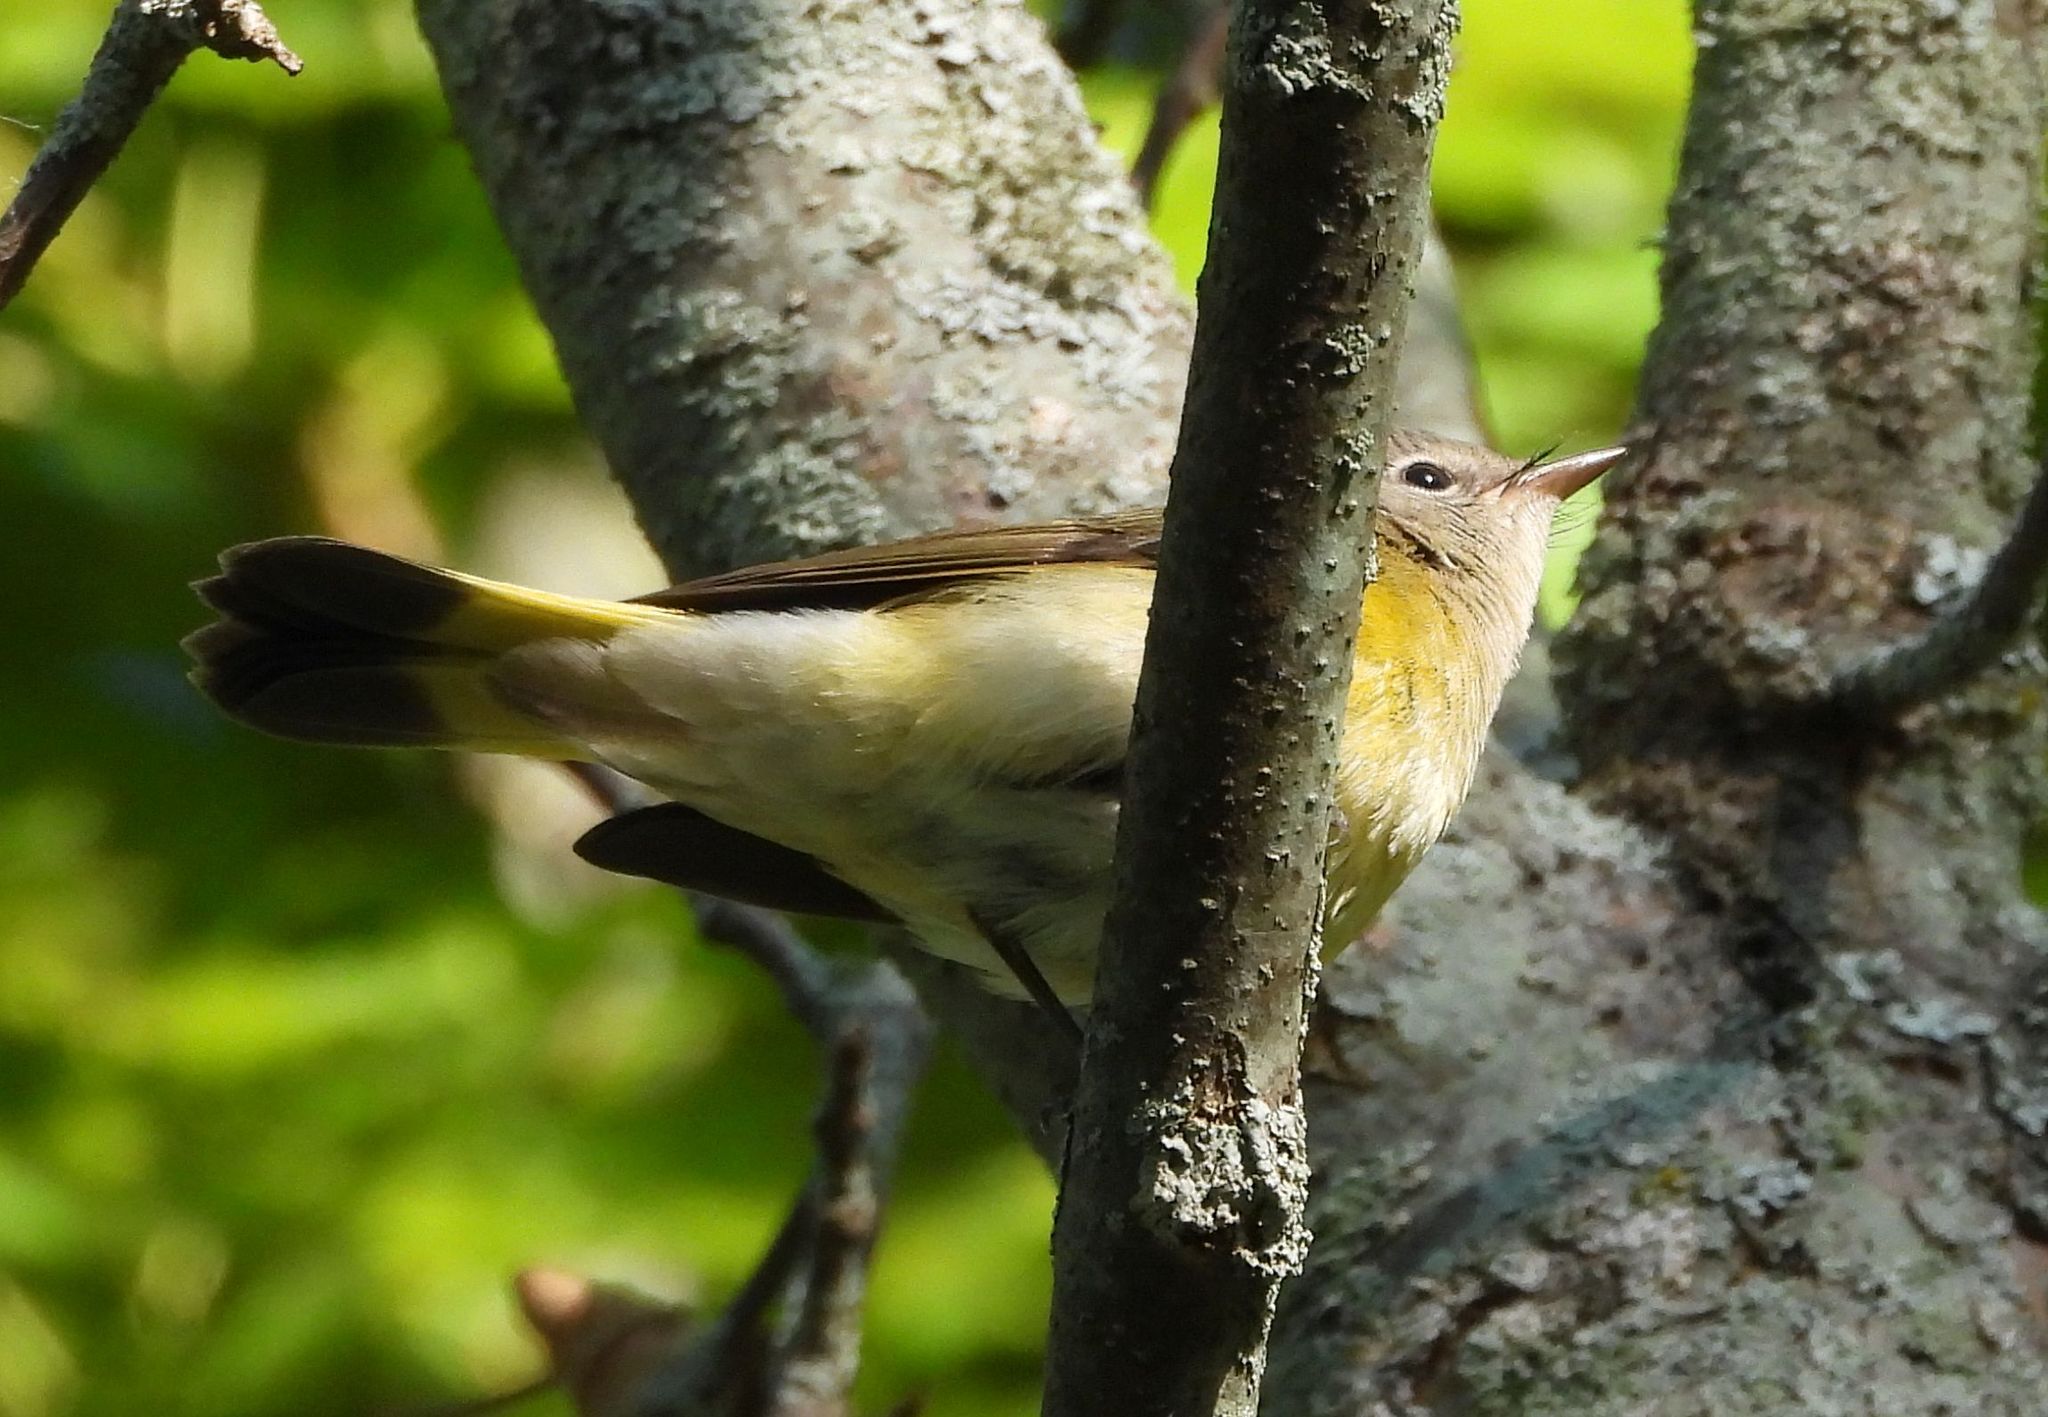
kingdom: Animalia
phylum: Chordata
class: Aves
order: Passeriformes
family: Parulidae
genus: Setophaga
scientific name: Setophaga ruticilla
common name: American redstart
